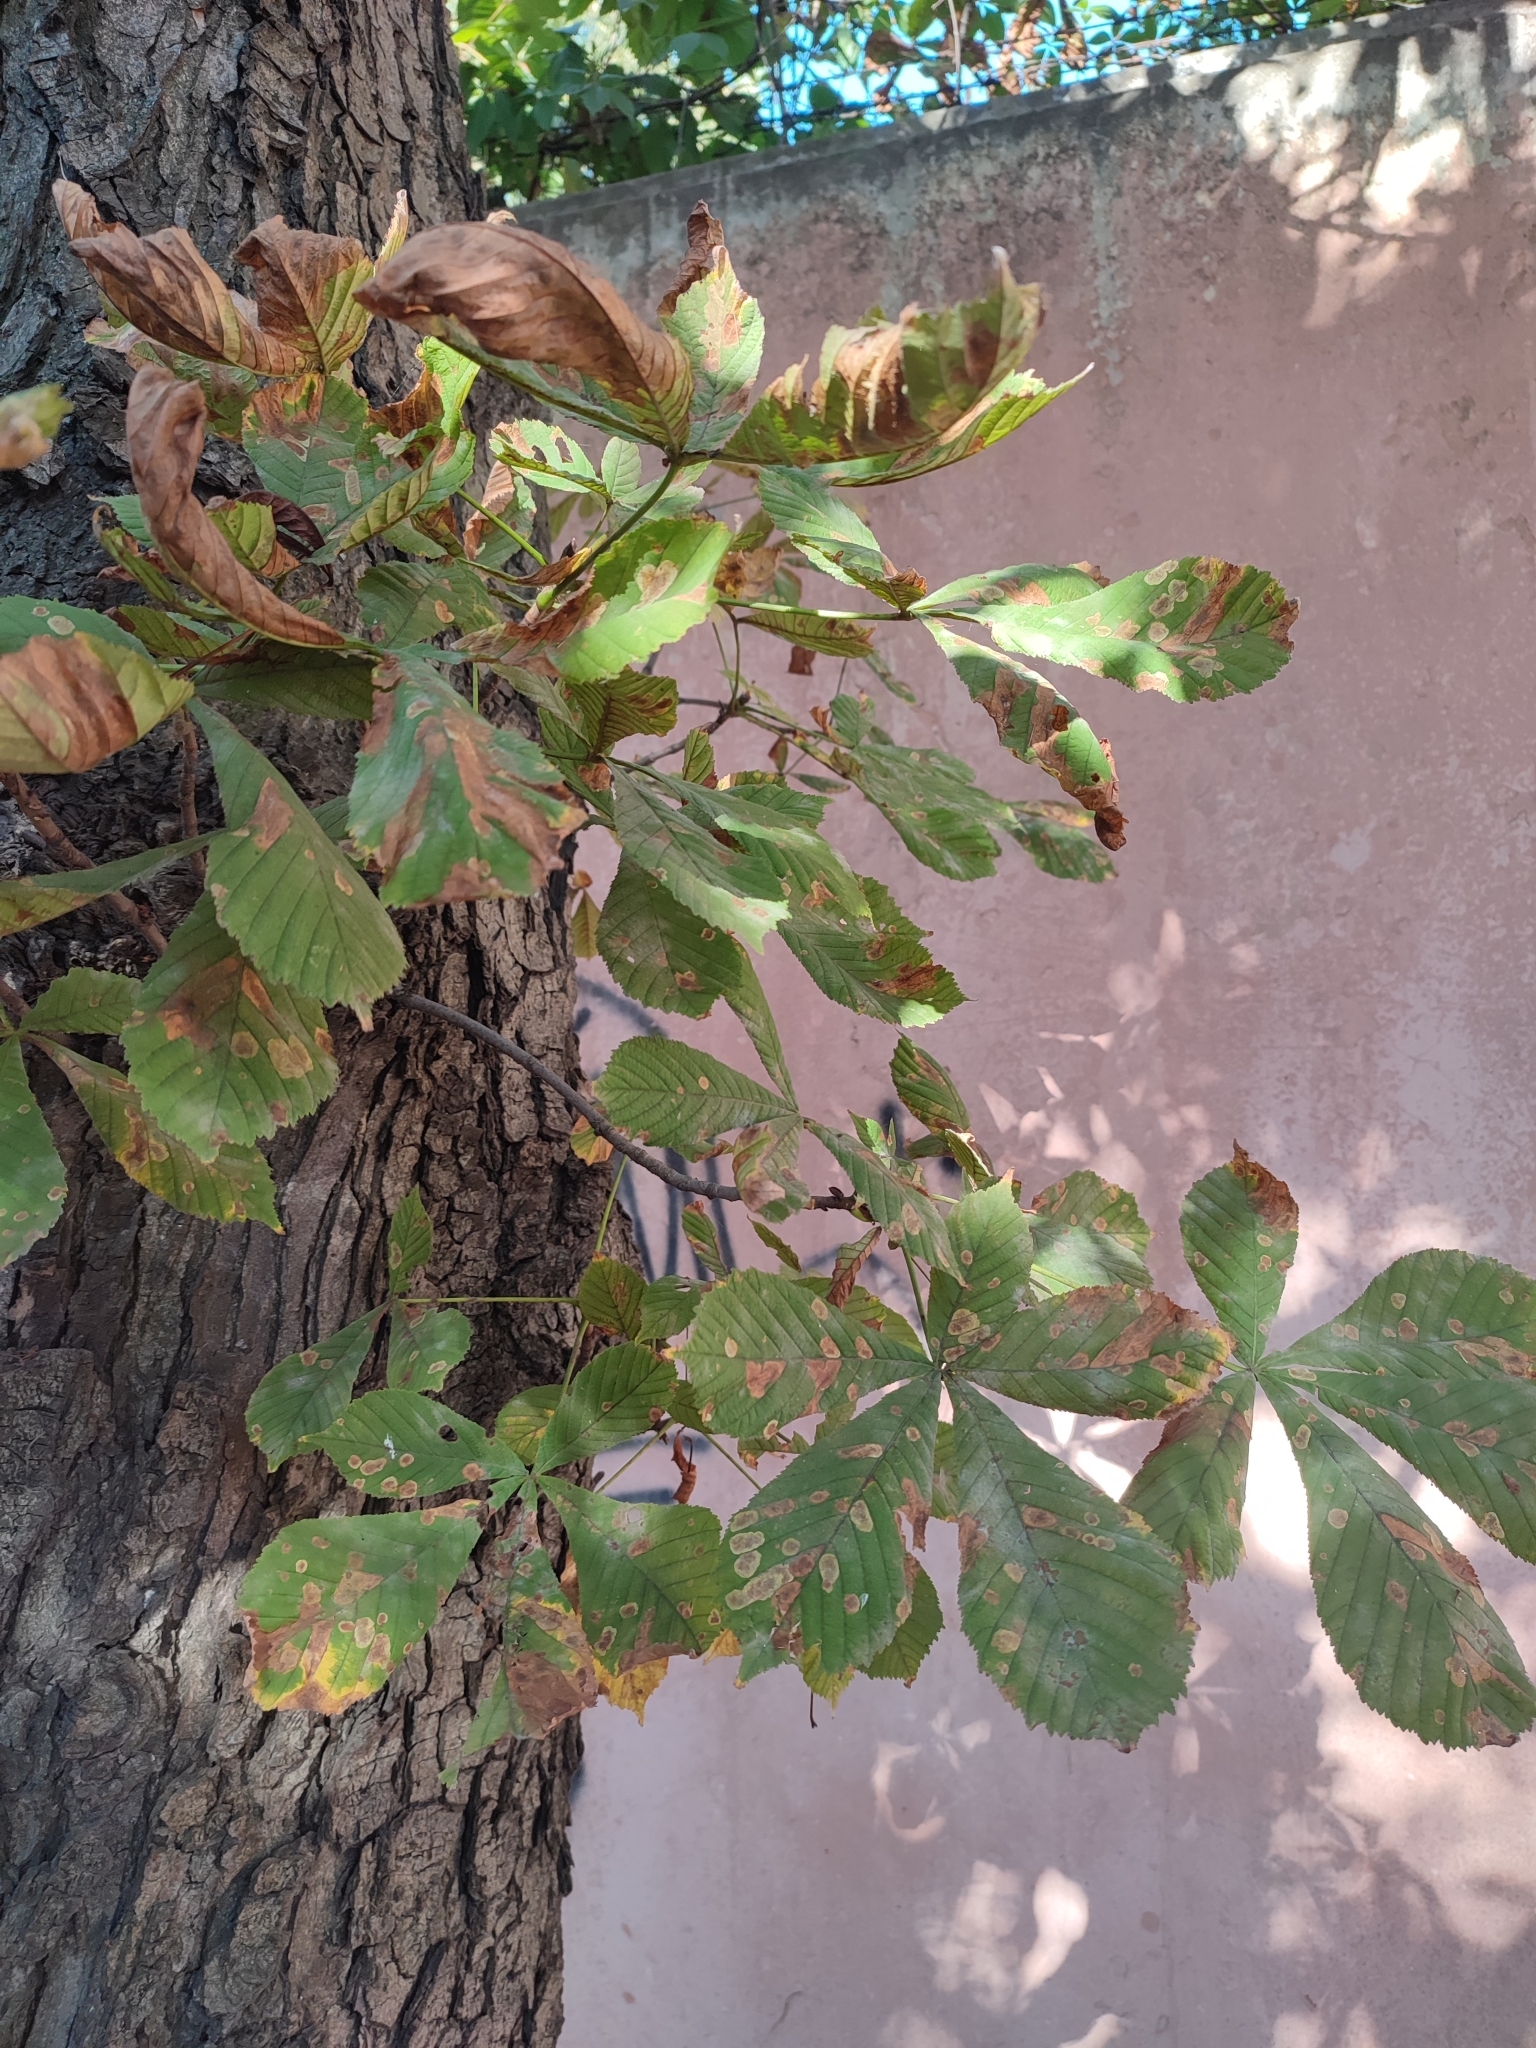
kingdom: Animalia
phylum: Arthropoda
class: Insecta
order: Lepidoptera
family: Gracillariidae
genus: Cameraria
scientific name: Cameraria ohridella
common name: Horse-chestnut leaf-miner
